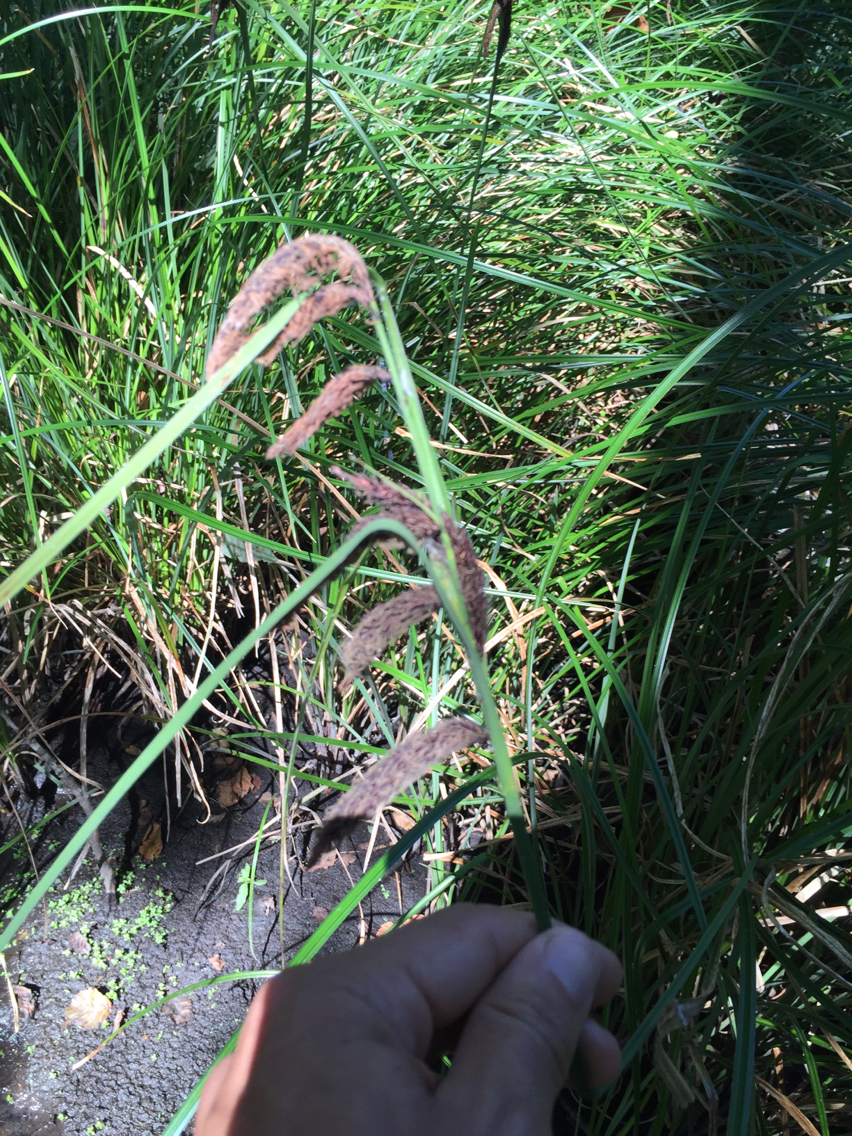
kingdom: Plantae
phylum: Tracheophyta
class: Liliopsida
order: Poales
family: Cyperaceae
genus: Carex
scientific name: Carex obnupta
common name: Slough sedge
